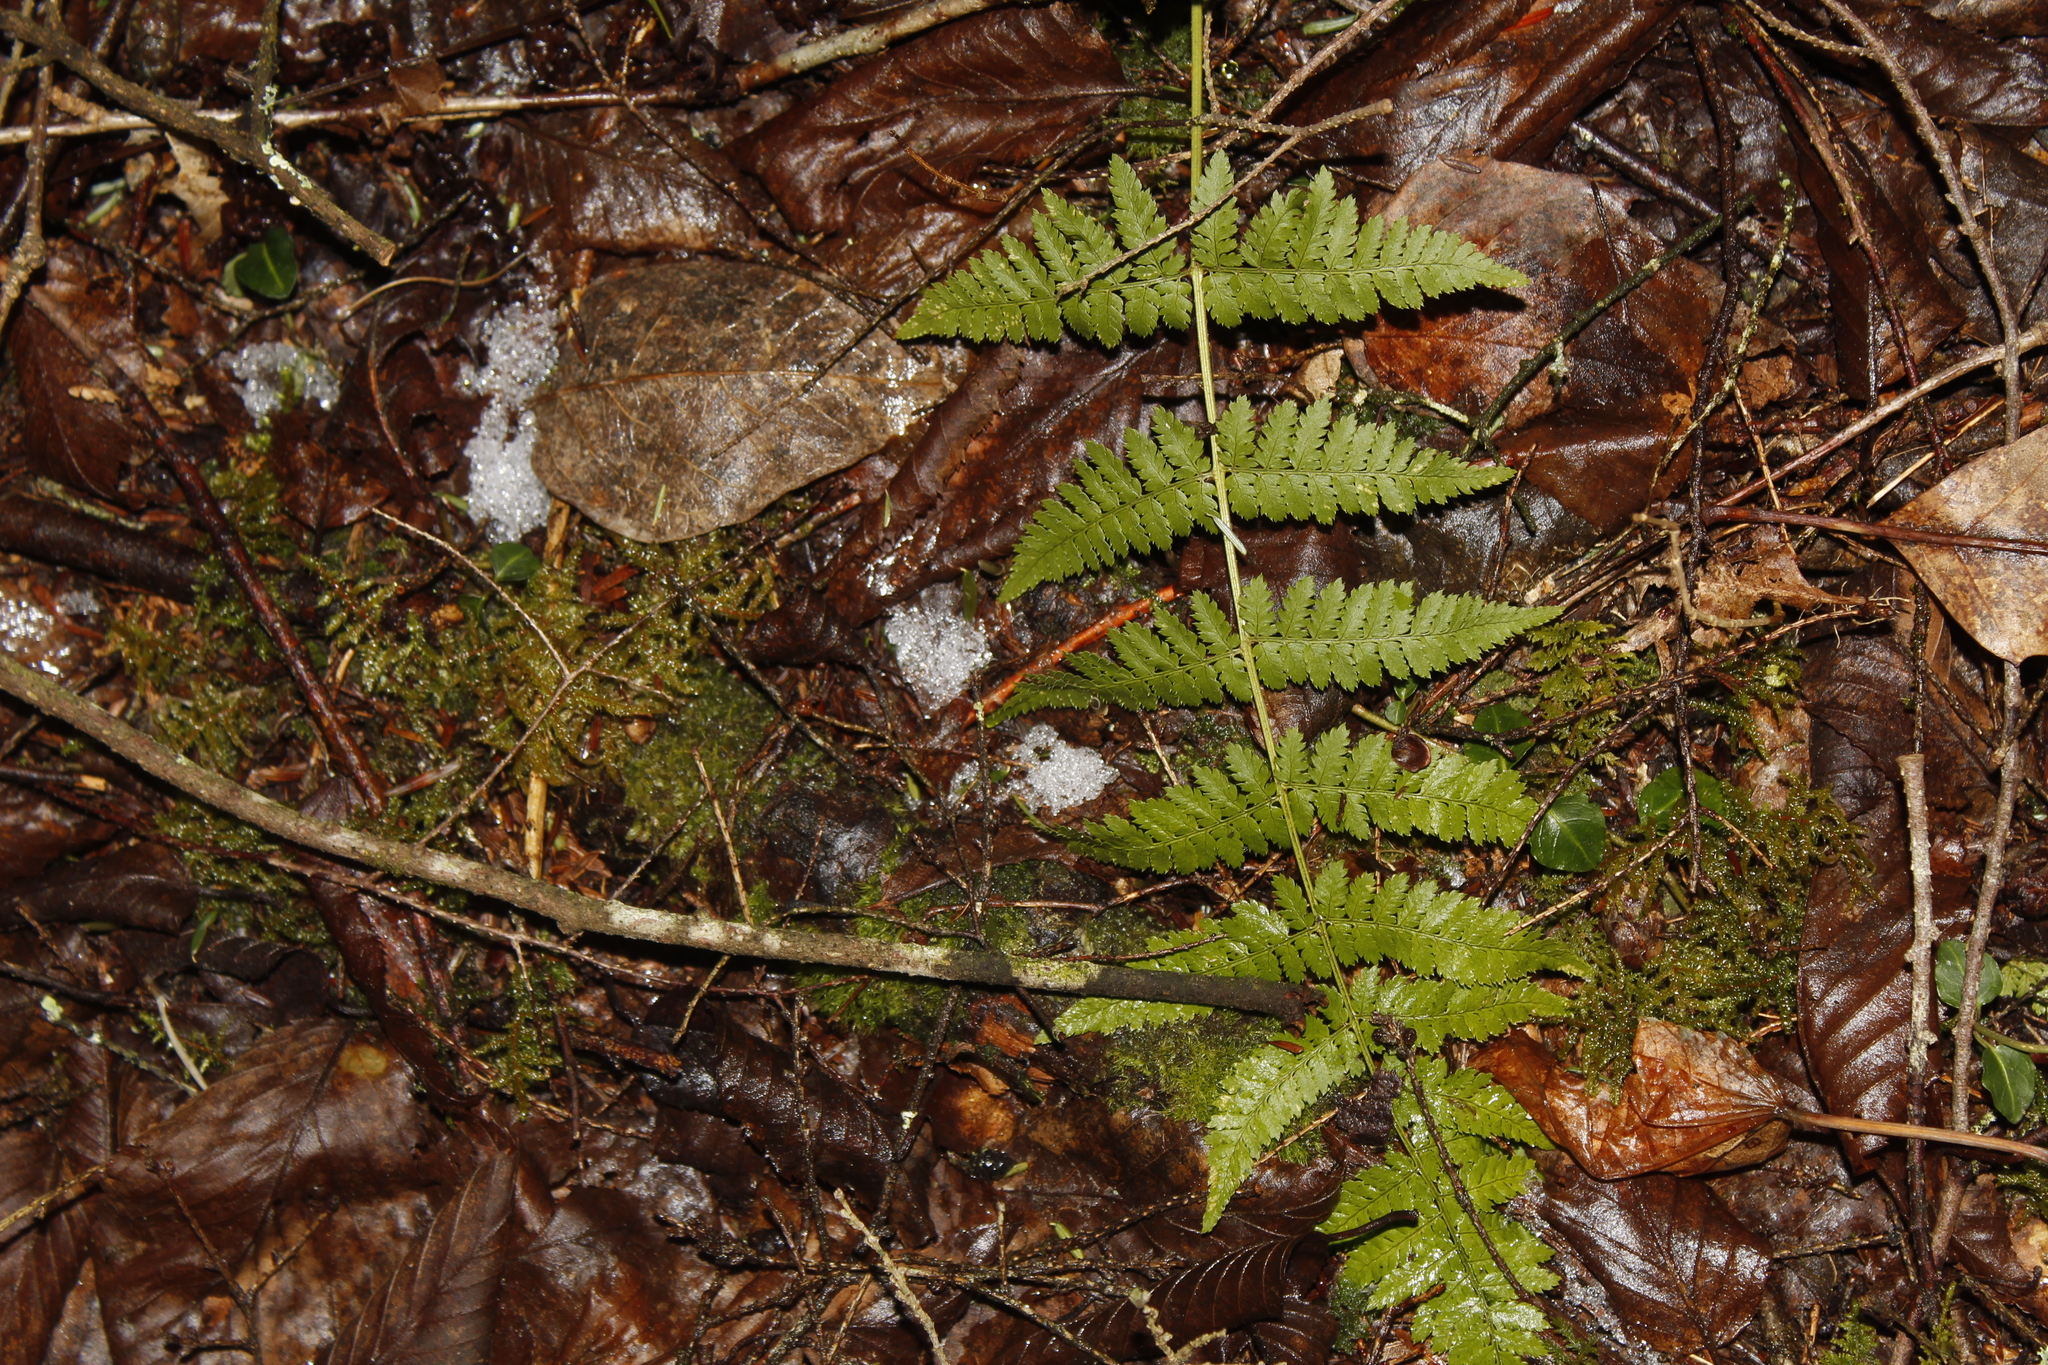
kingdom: Plantae
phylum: Tracheophyta
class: Polypodiopsida
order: Polypodiales
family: Dryopteridaceae
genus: Dryopteris
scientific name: Dryopteris intermedia
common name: Evergreen wood fern
